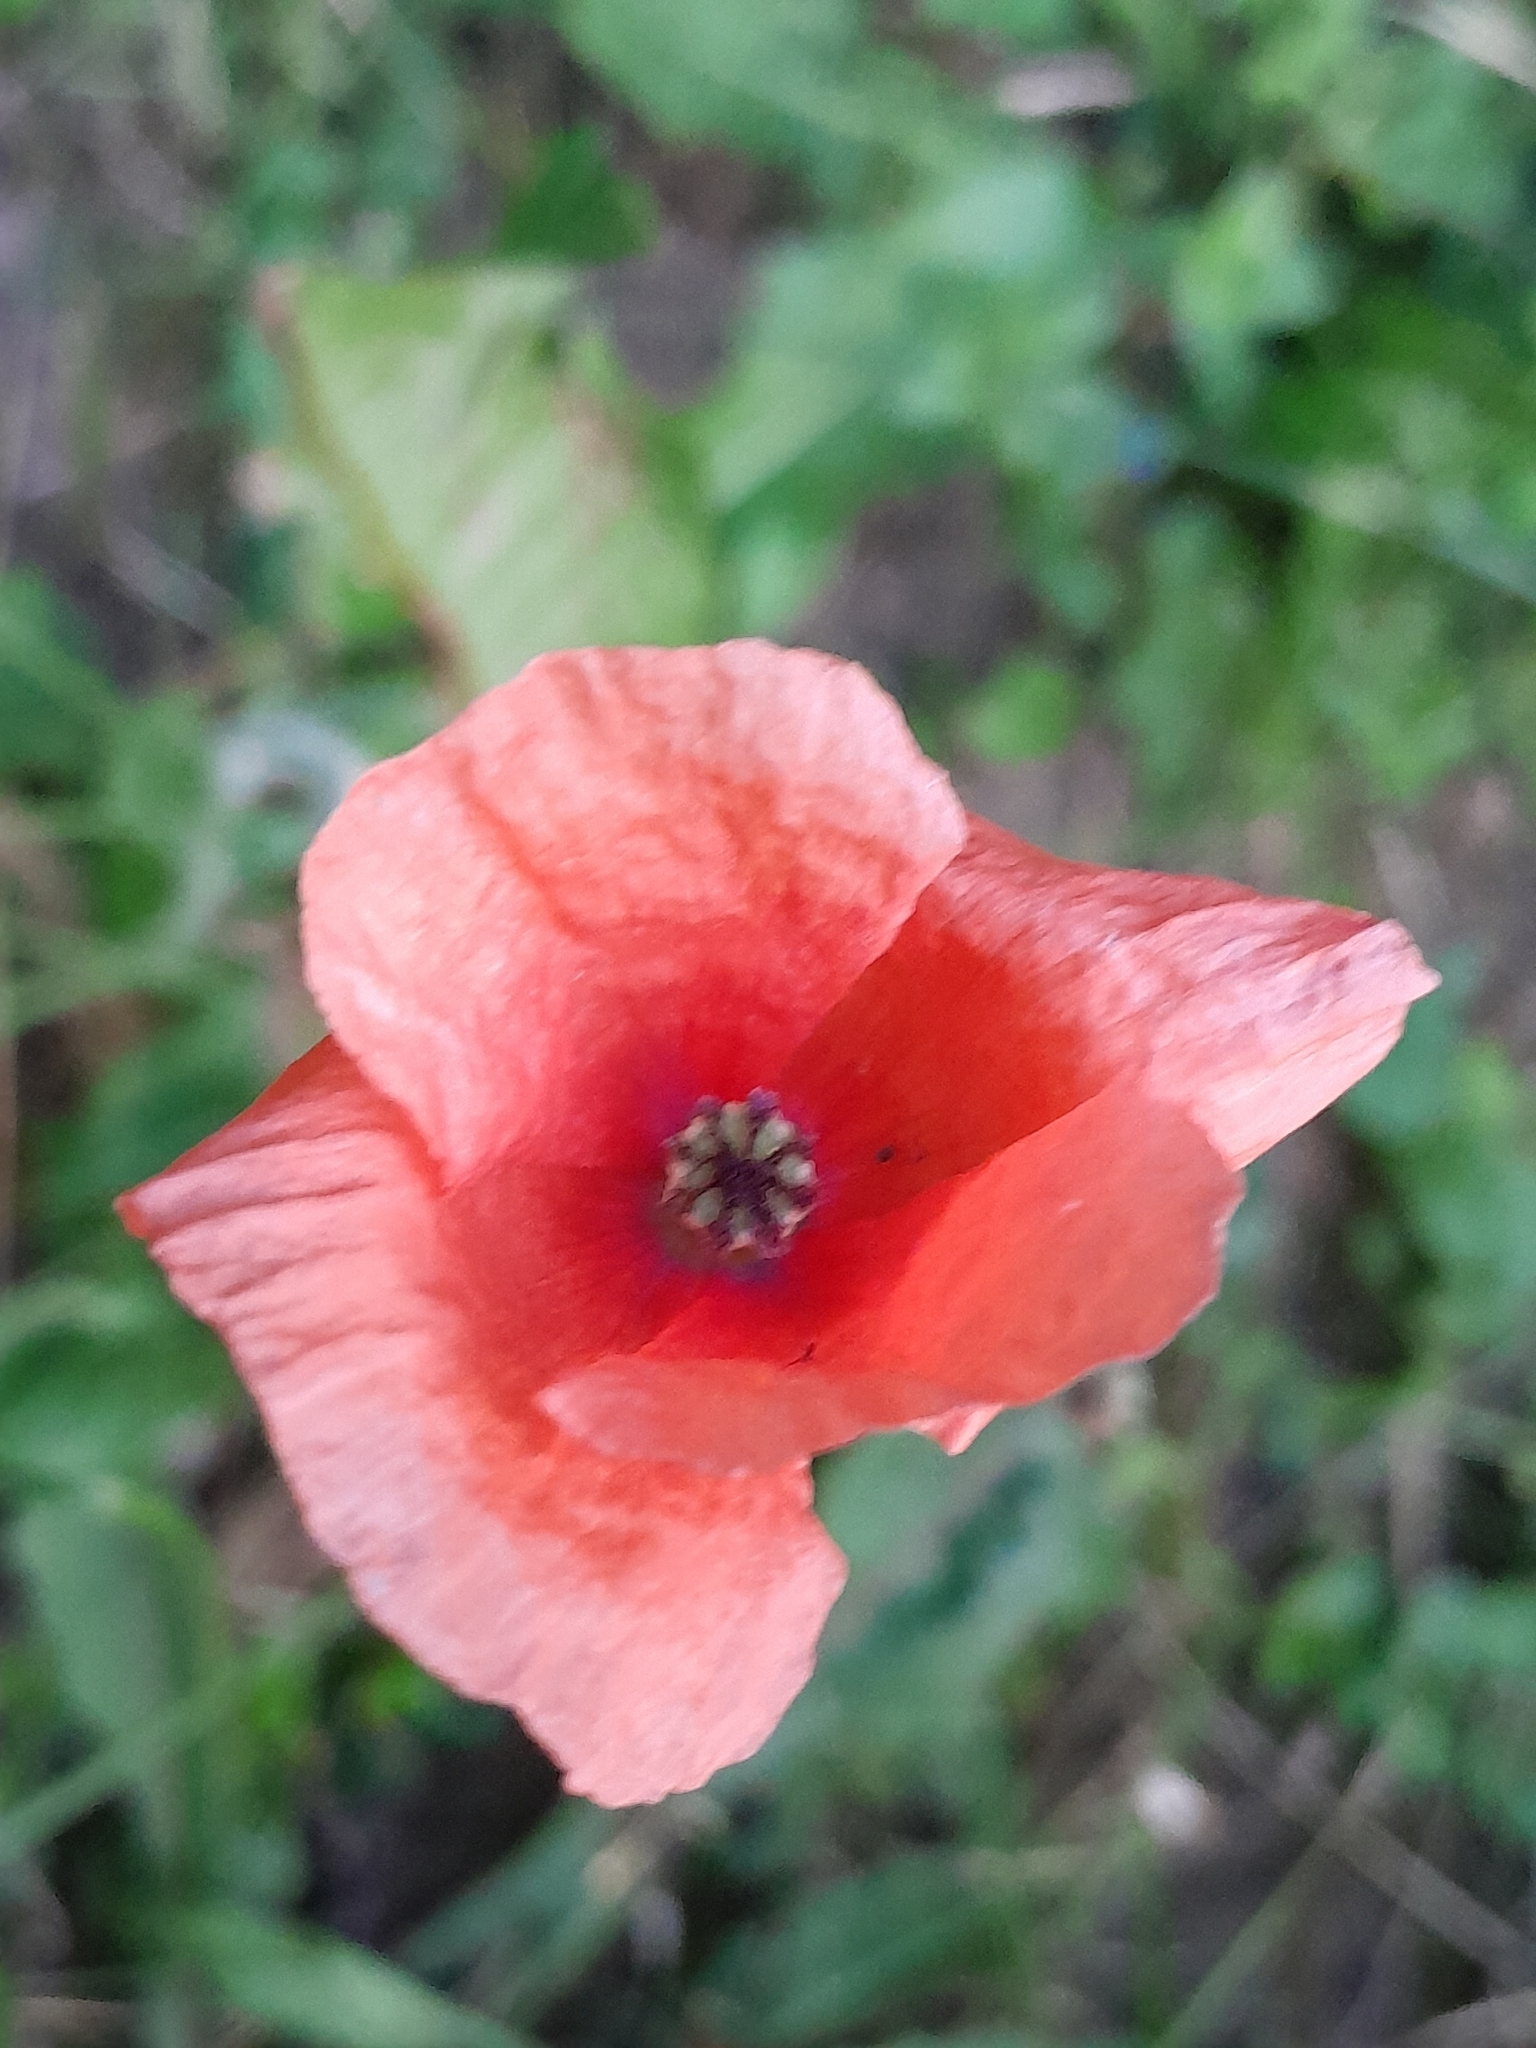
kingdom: Plantae
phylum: Tracheophyta
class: Magnoliopsida
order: Ranunculales
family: Papaveraceae
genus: Papaver
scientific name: Papaver rhoeas
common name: Corn poppy
